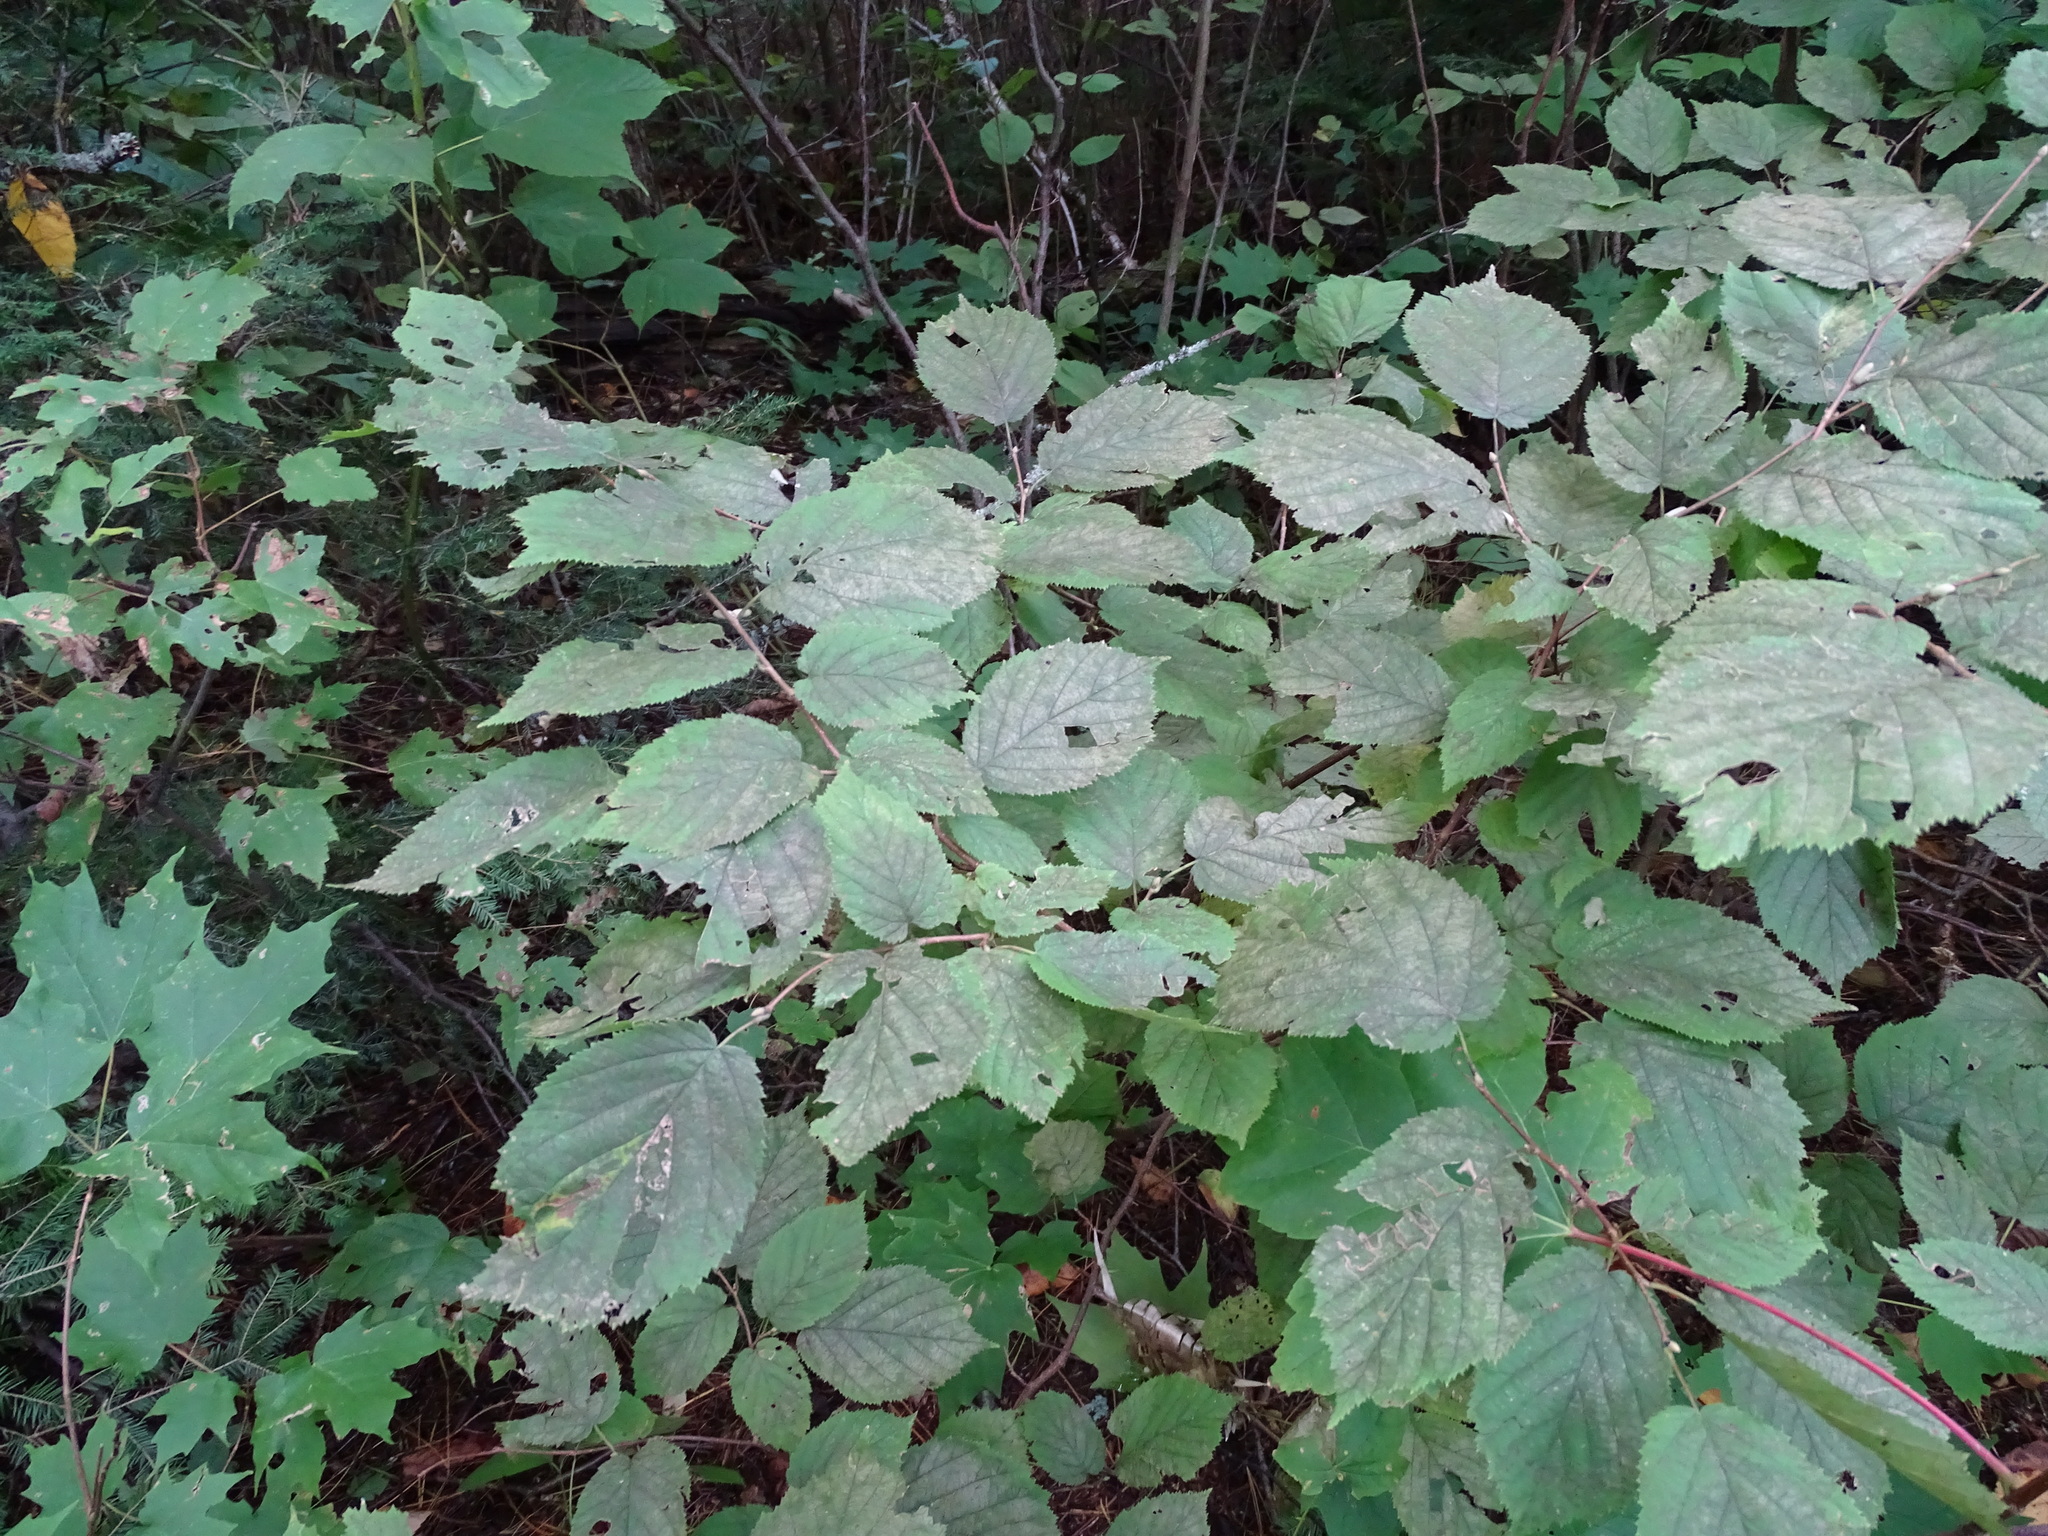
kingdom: Plantae
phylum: Tracheophyta
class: Magnoliopsida
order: Fagales
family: Betulaceae
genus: Corylus
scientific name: Corylus cornuta
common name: Beaked hazel
